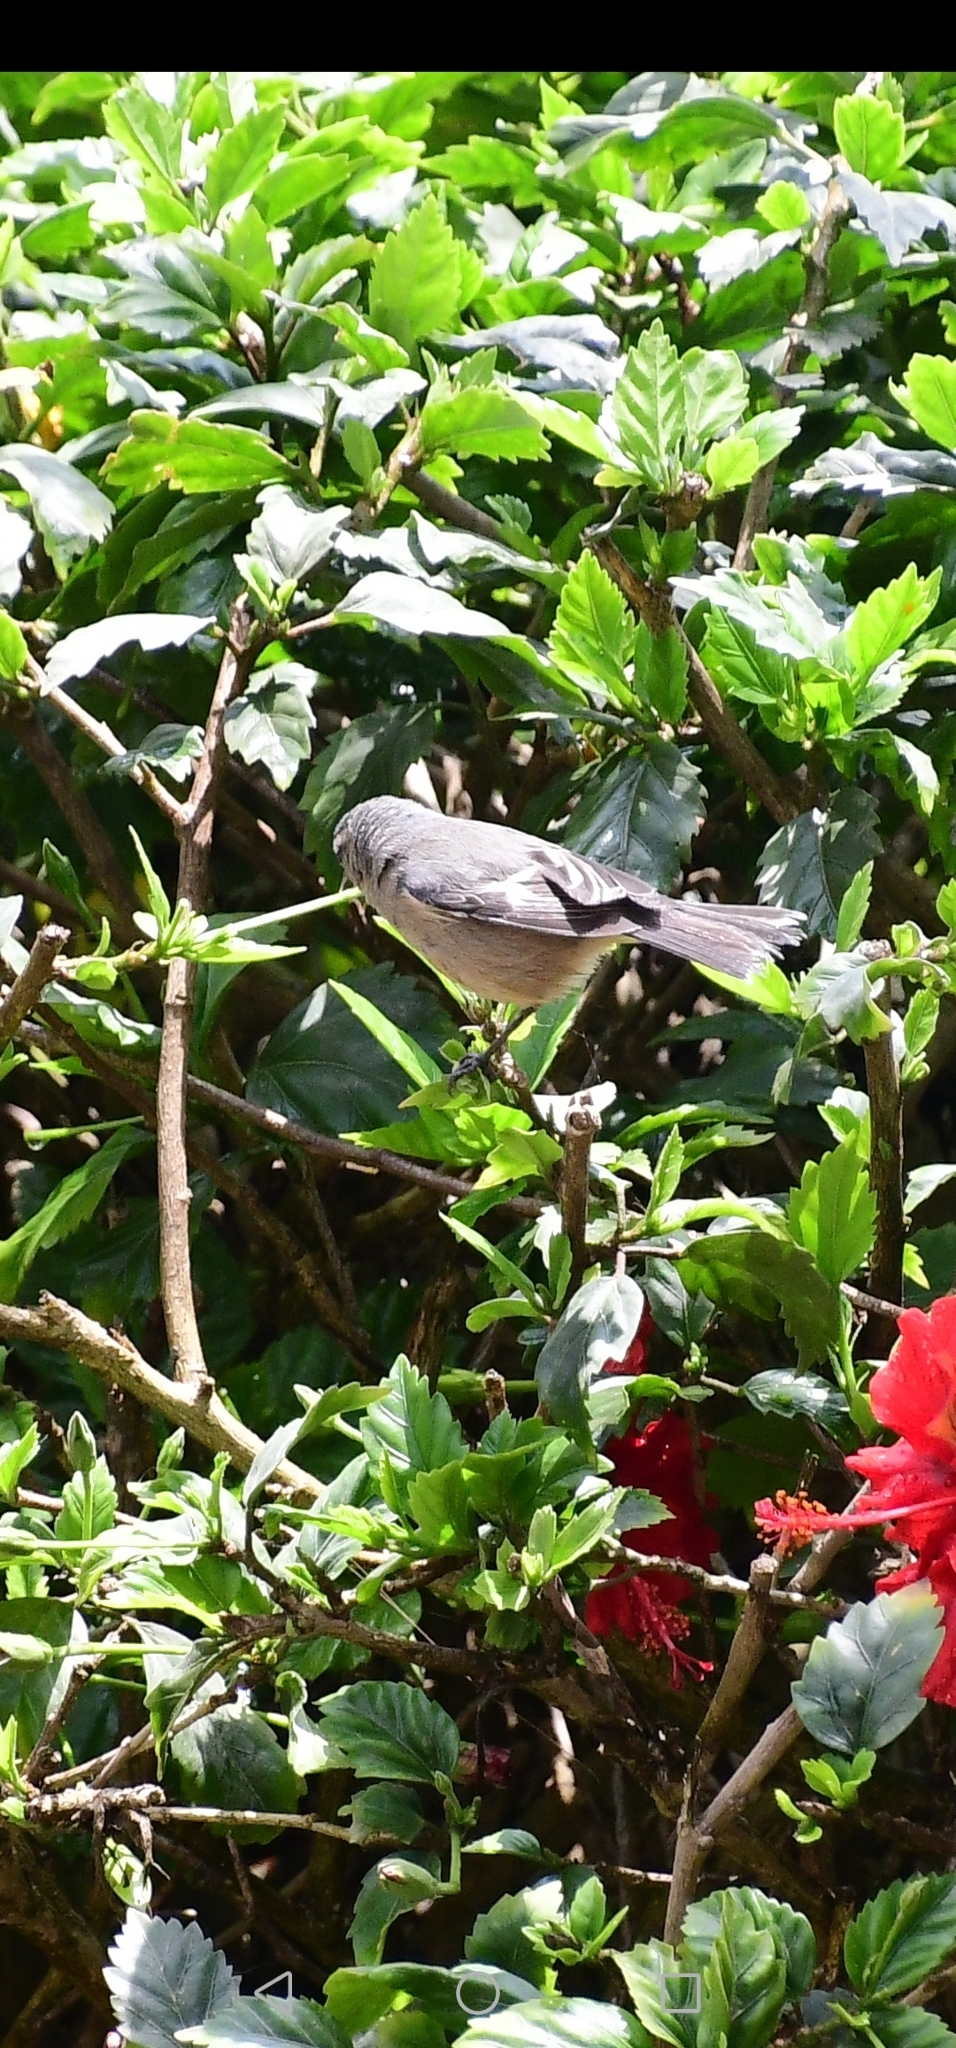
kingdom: Animalia
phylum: Chordata
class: Aves
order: Passeriformes
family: Thraupidae
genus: Conirostrum
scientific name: Conirostrum cinereum
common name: Cinereous conebill
